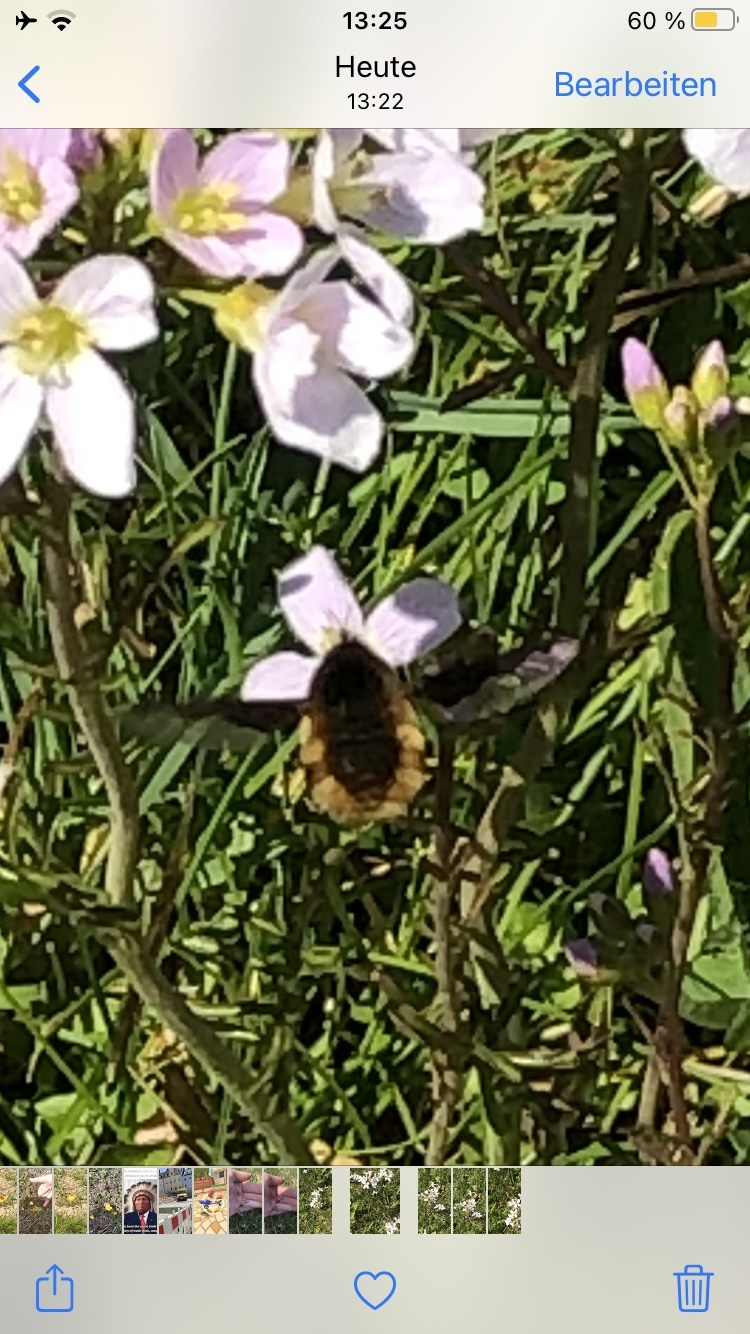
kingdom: Animalia
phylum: Arthropoda
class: Insecta
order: Diptera
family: Bombyliidae
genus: Bombylius
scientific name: Bombylius major
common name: Bee fly
